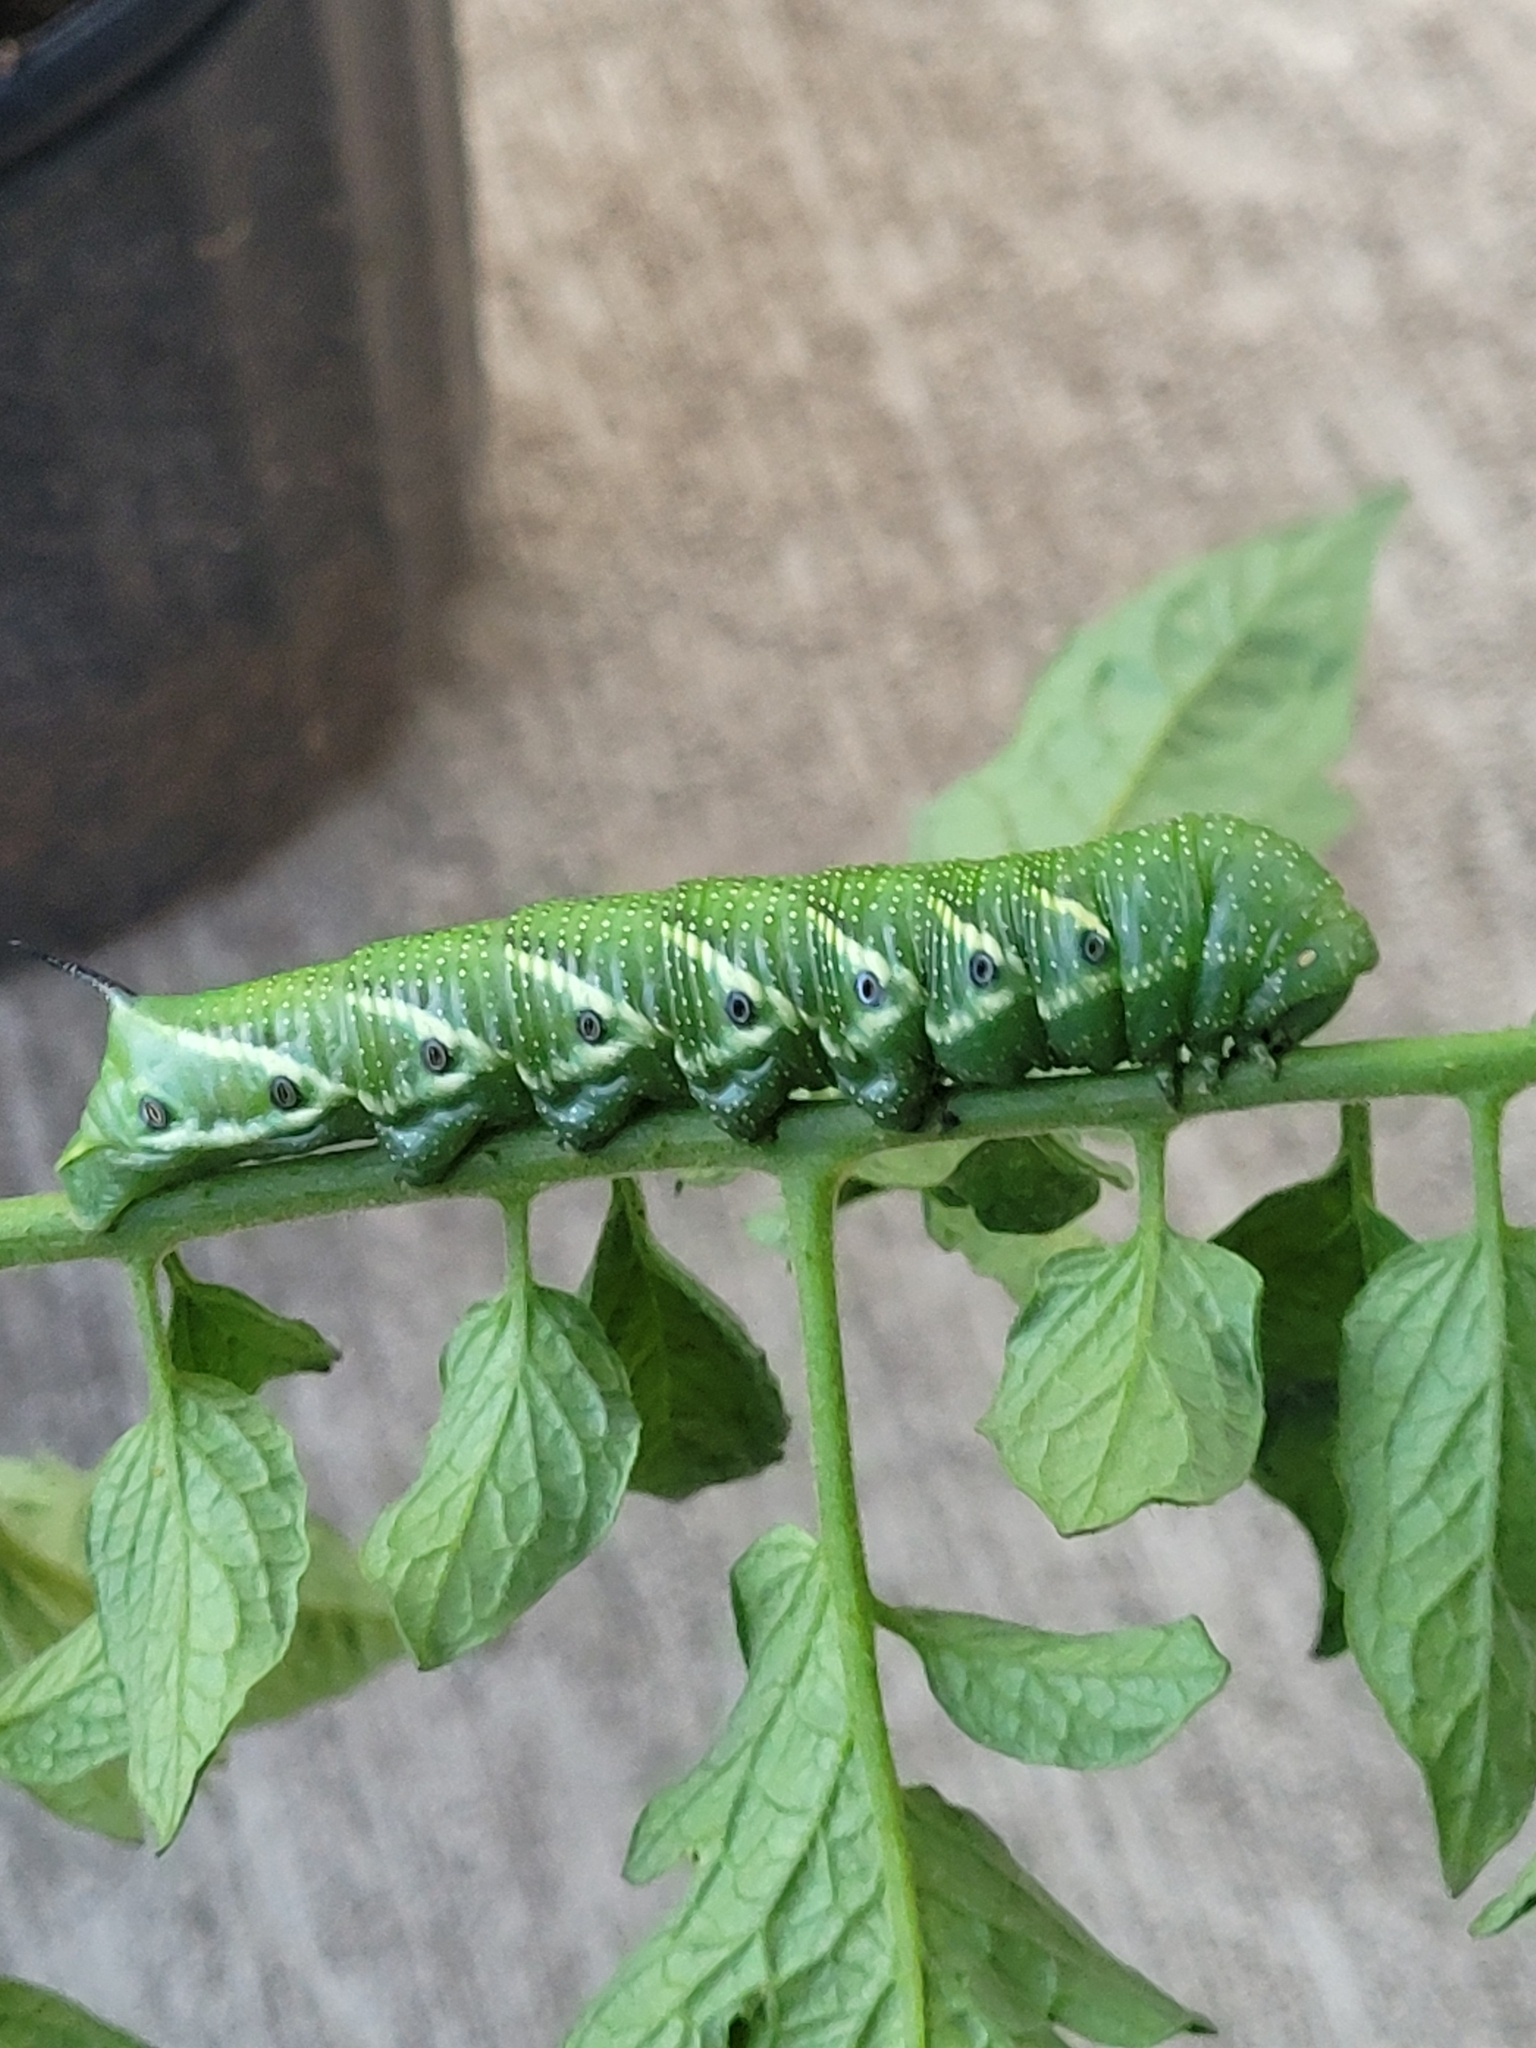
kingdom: Animalia
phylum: Arthropoda
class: Insecta
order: Lepidoptera
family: Sphingidae
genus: Manduca
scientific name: Manduca quinquemaculatus
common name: Five-spotted hawk-moth
